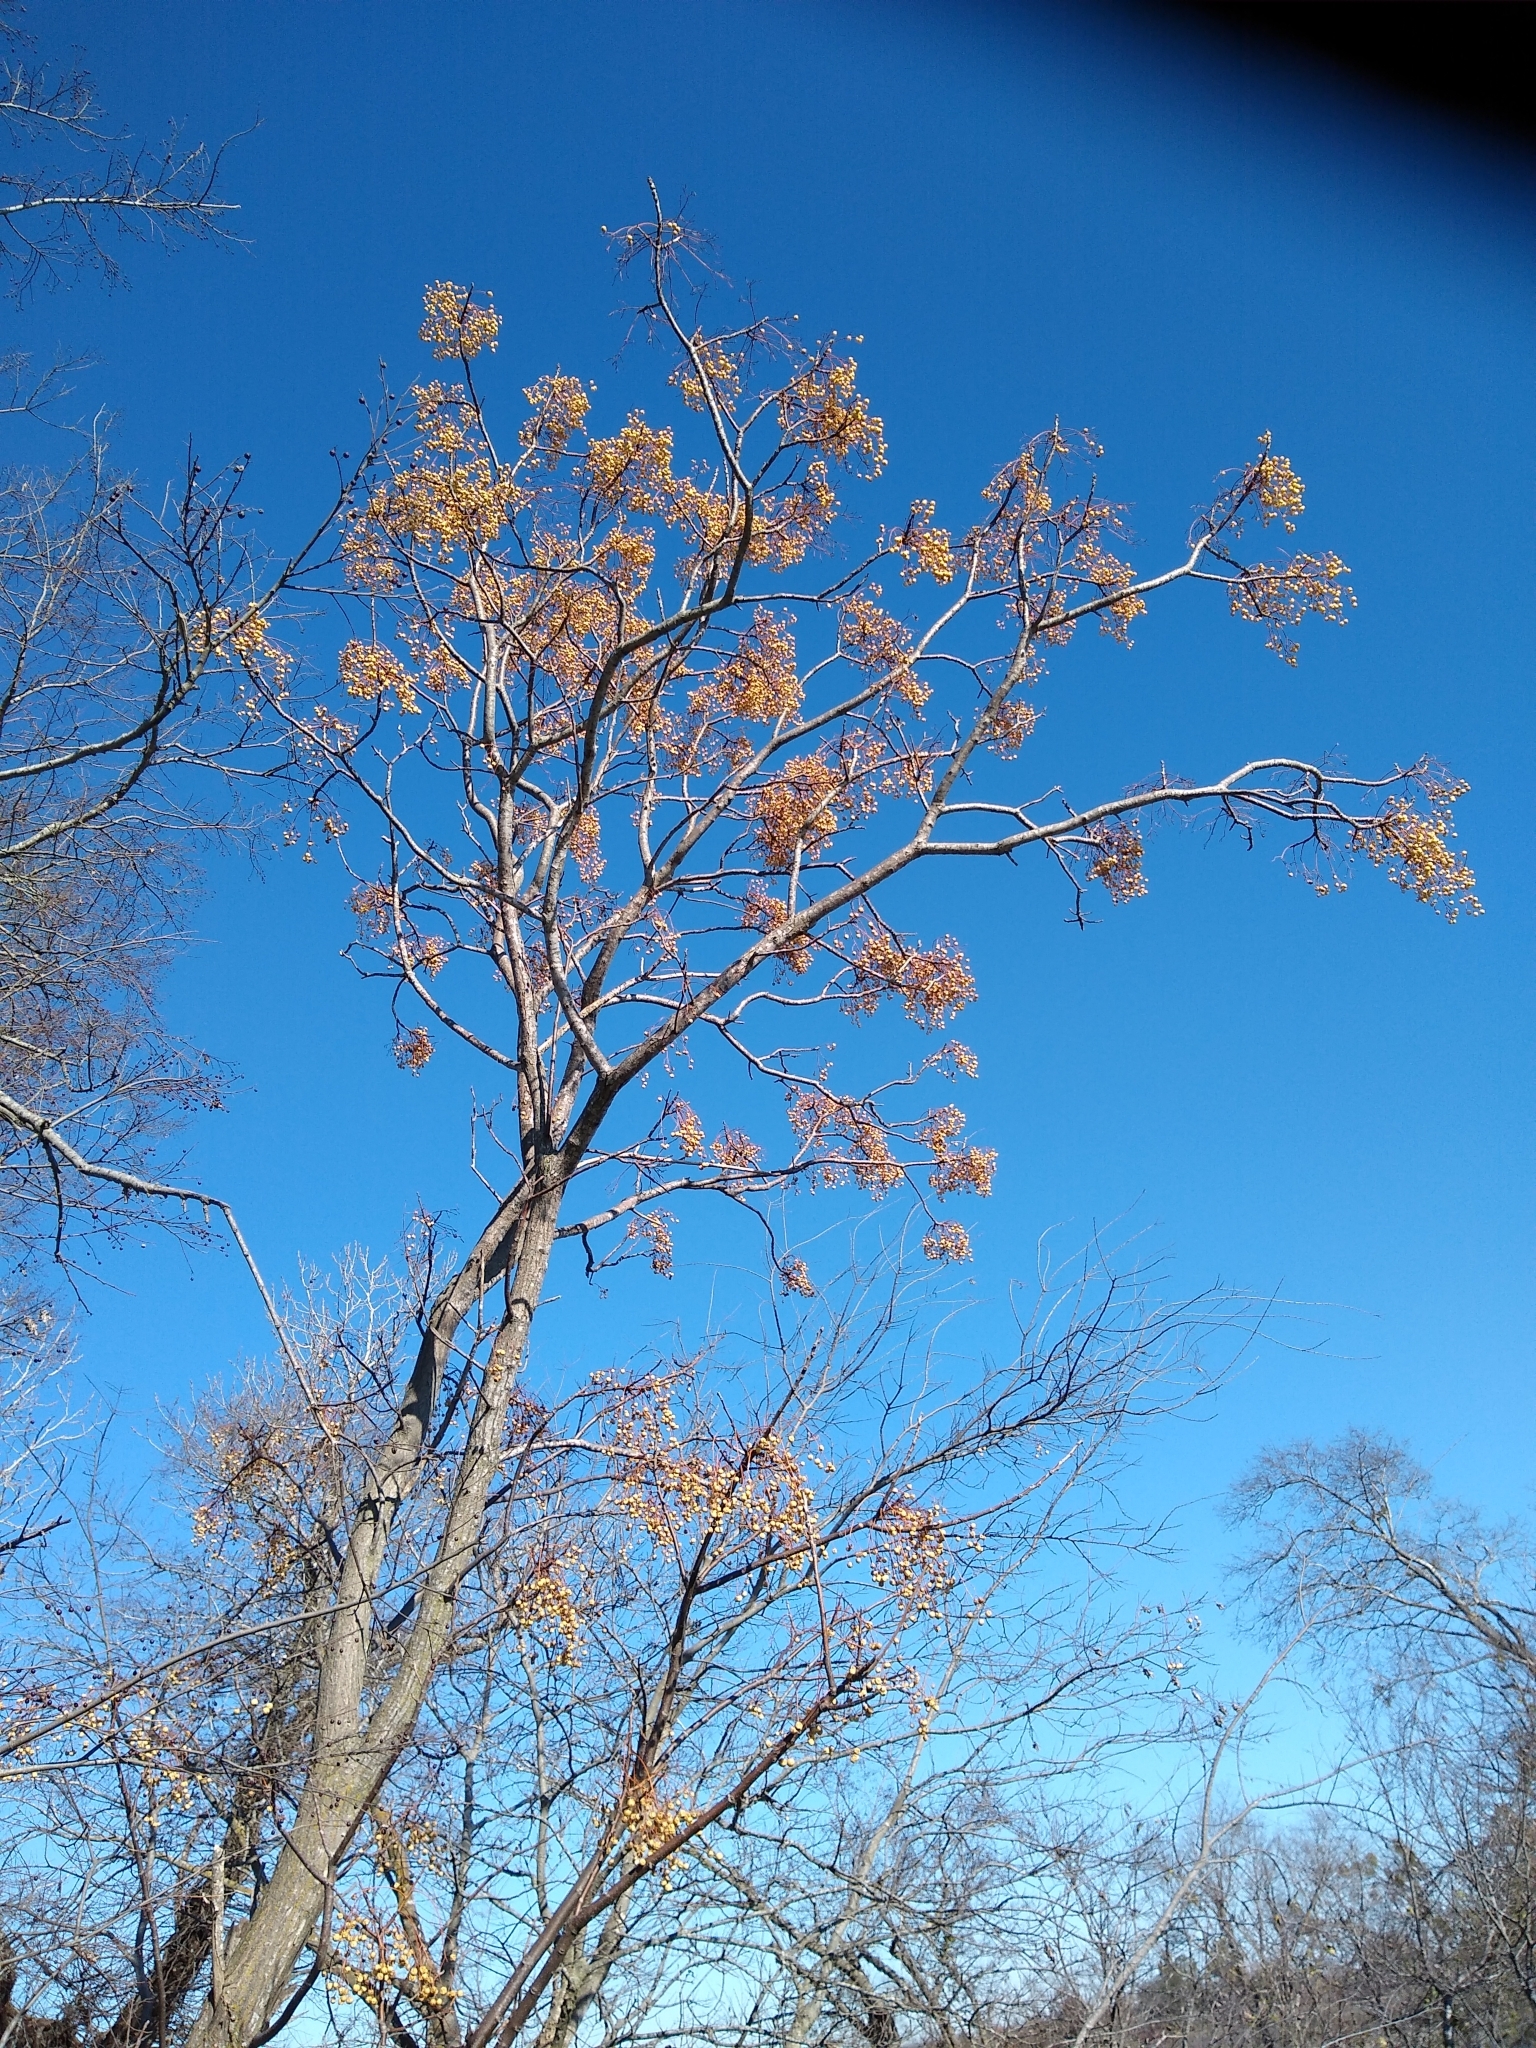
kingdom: Plantae
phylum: Tracheophyta
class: Magnoliopsida
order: Sapindales
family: Meliaceae
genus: Melia
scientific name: Melia azedarach
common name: Chinaberrytree
